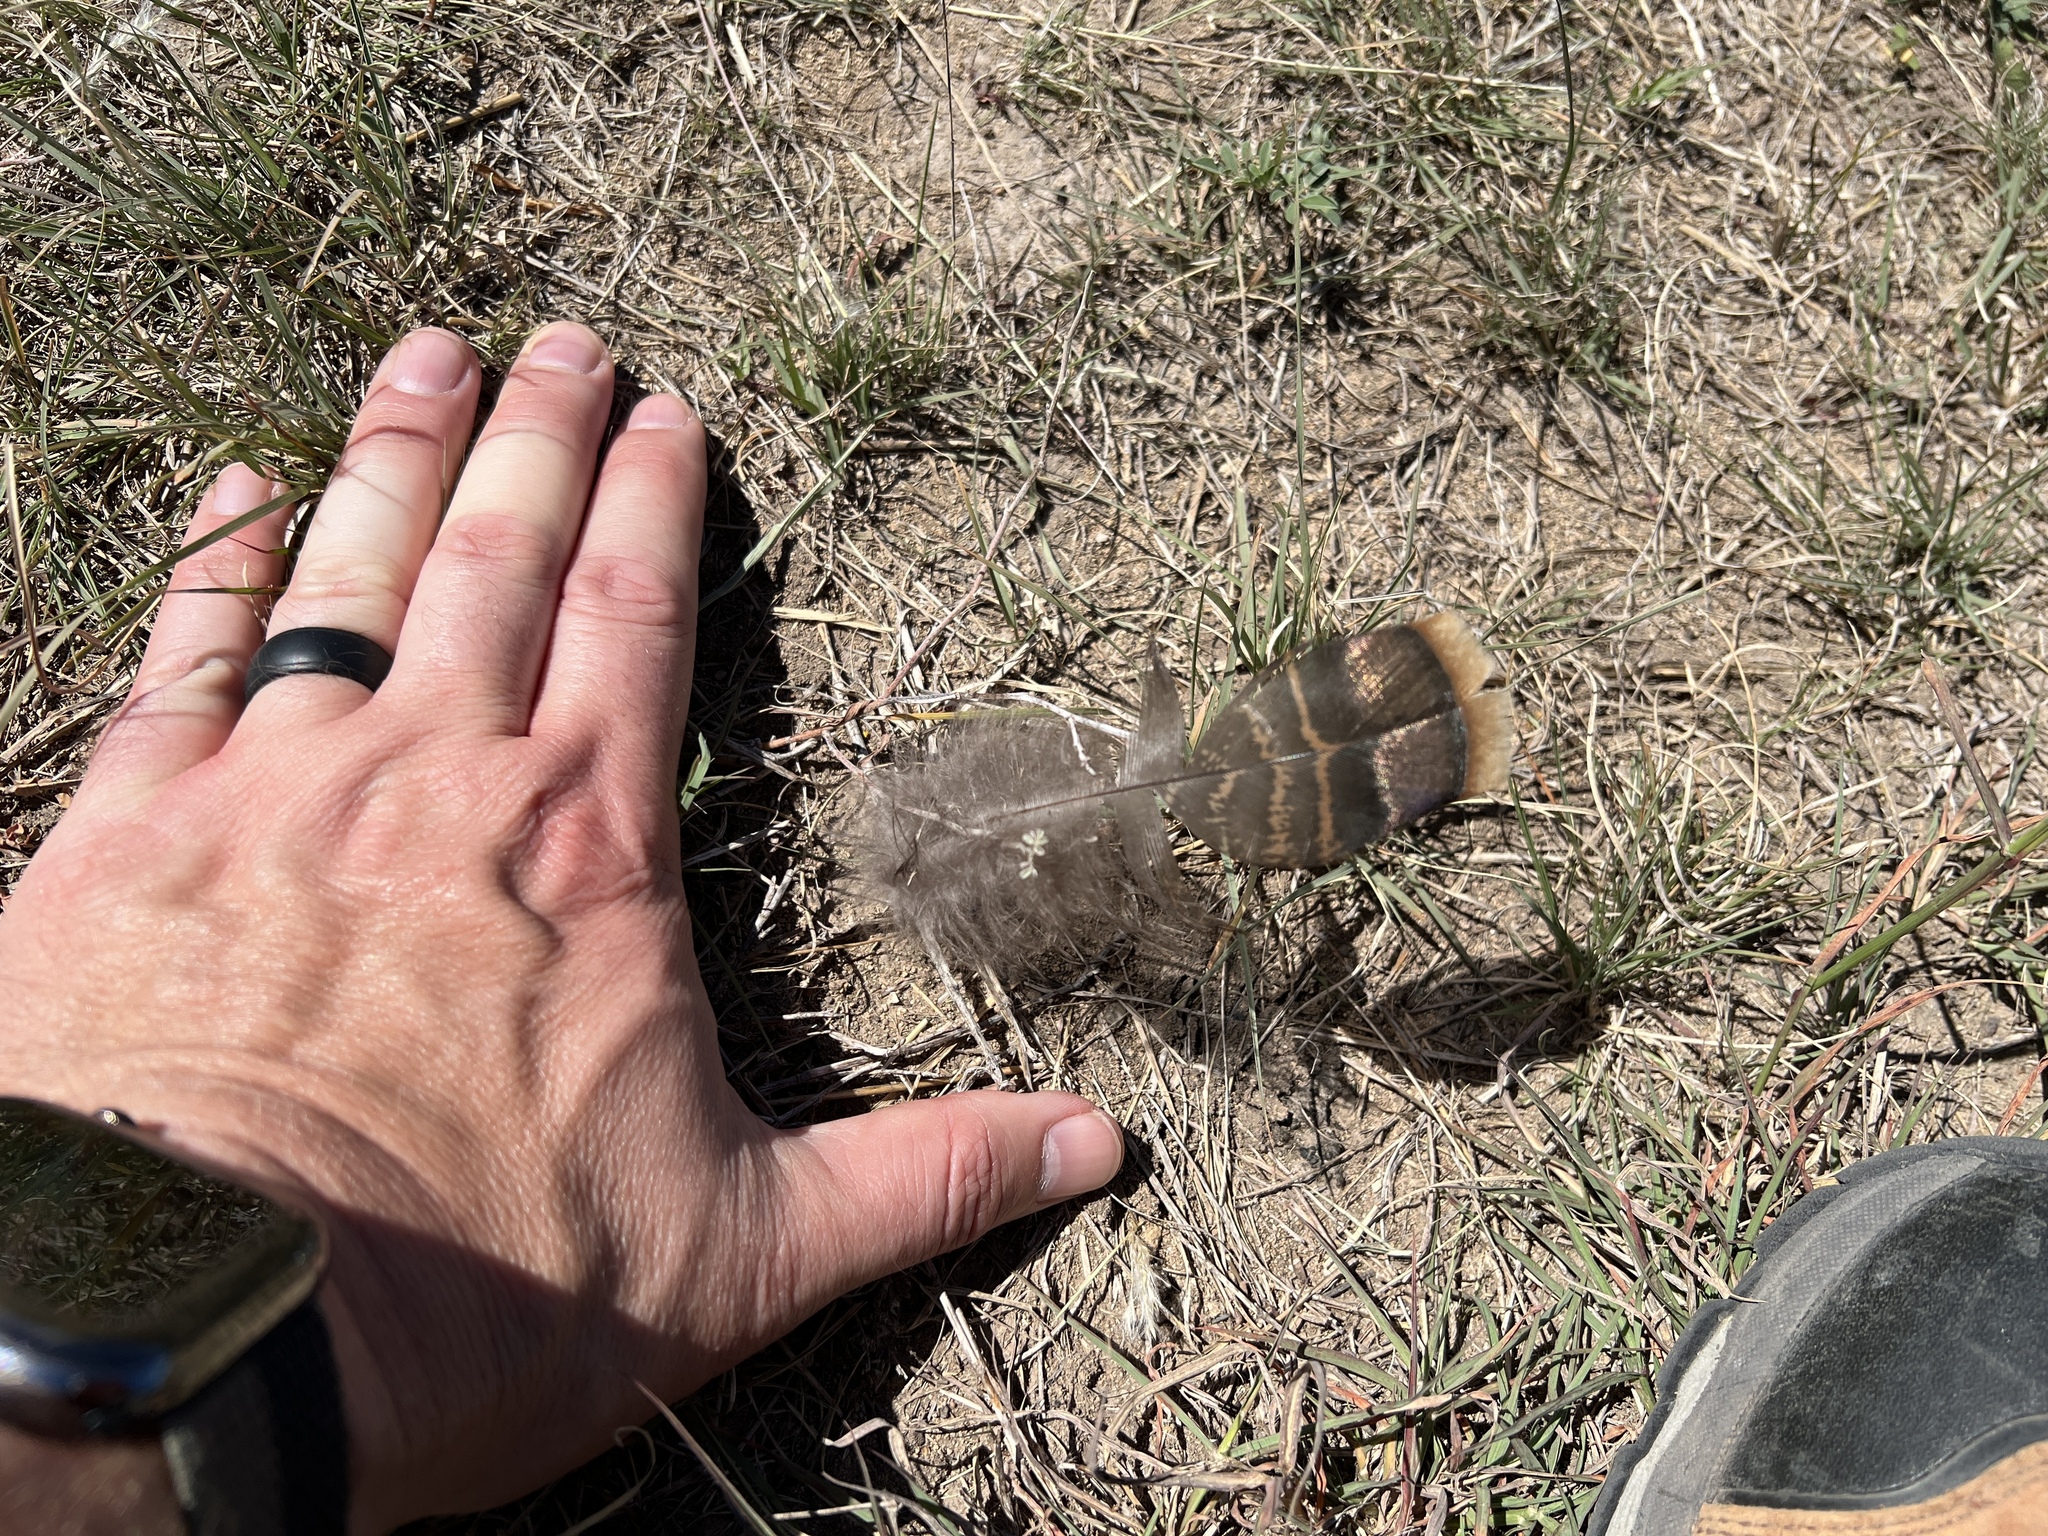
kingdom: Animalia
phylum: Chordata
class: Aves
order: Galliformes
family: Phasianidae
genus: Meleagris
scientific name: Meleagris gallopavo
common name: Wild turkey
